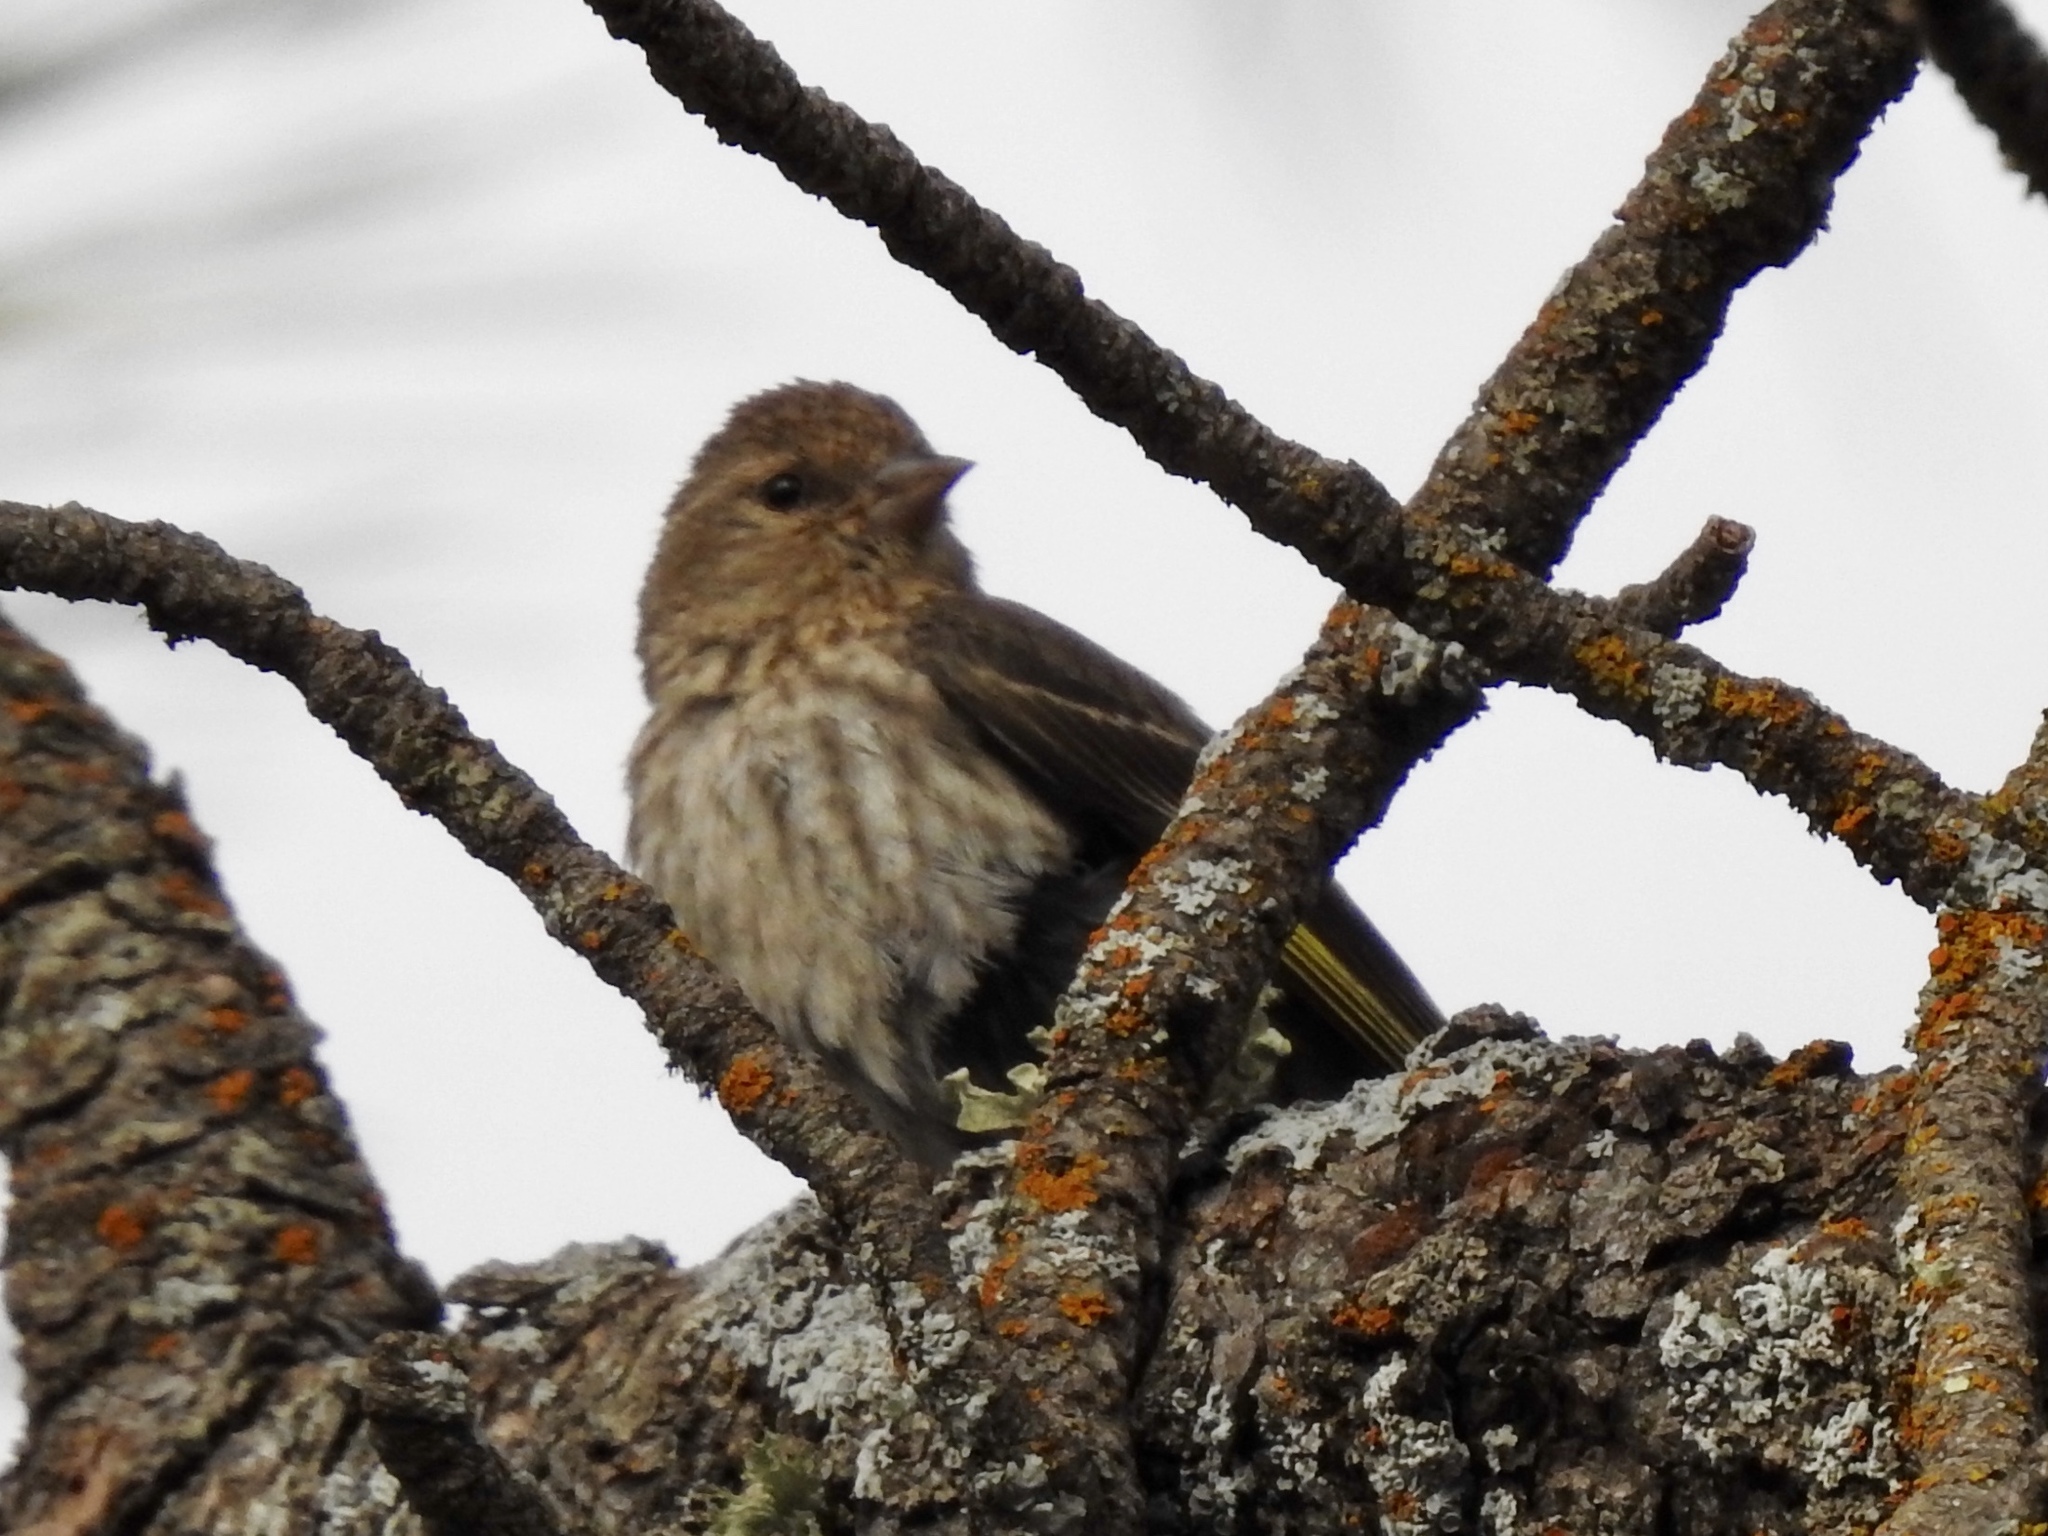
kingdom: Animalia
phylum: Chordata
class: Aves
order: Passeriformes
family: Fringillidae
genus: Spinus
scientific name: Spinus pinus
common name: Pine siskin
